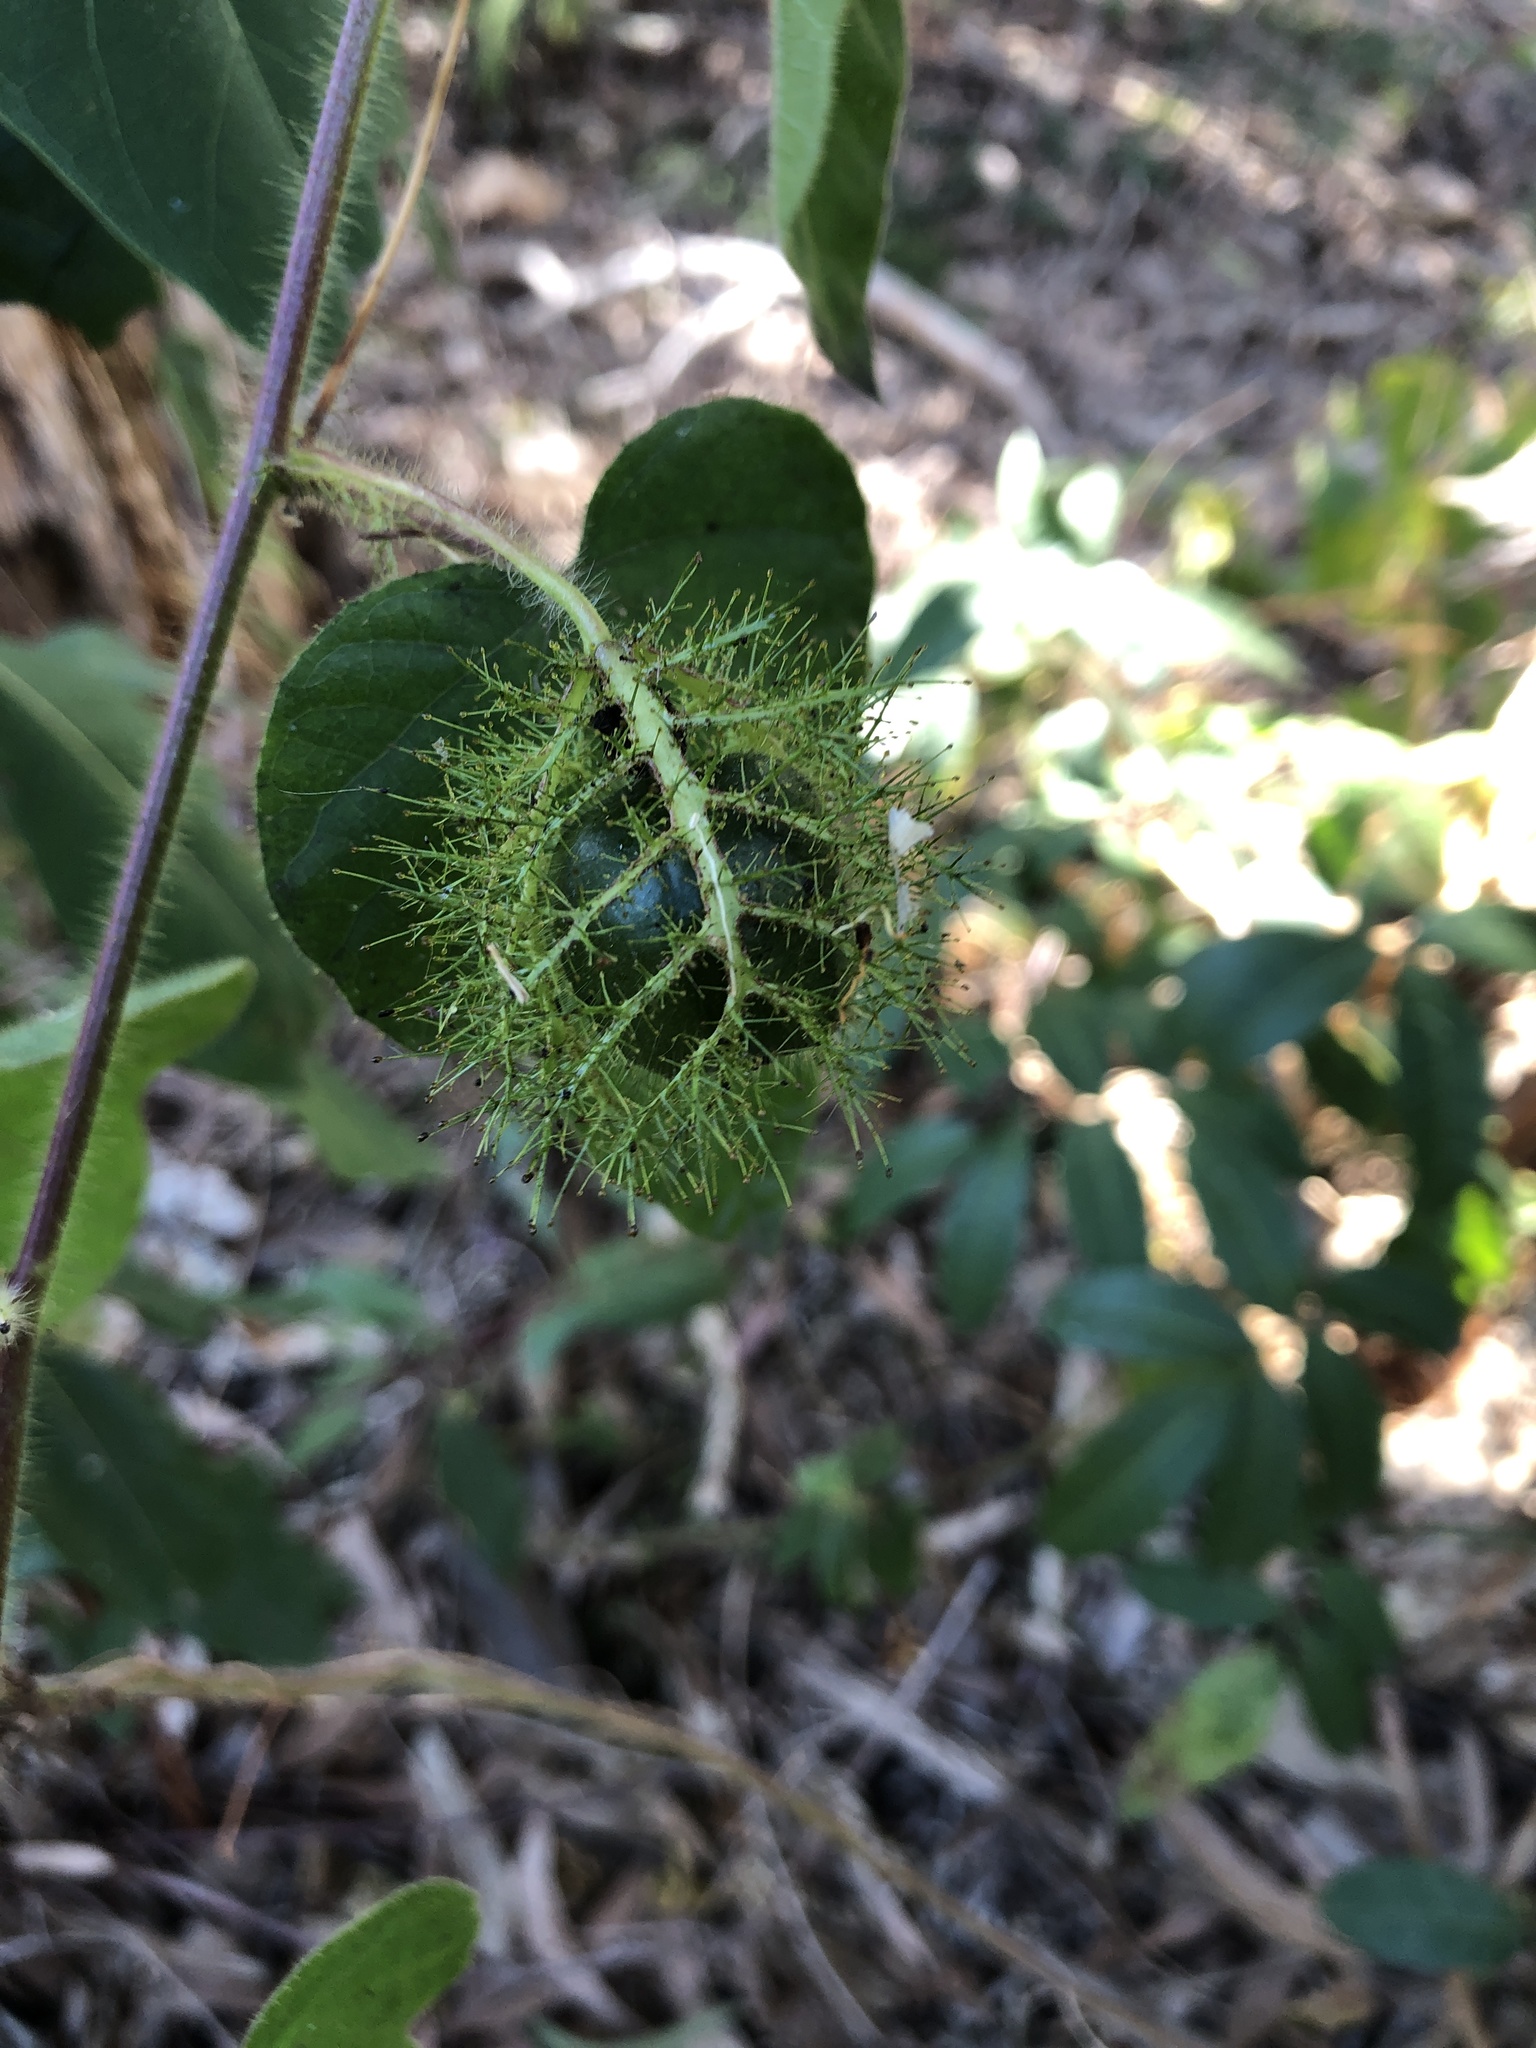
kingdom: Plantae
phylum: Tracheophyta
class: Magnoliopsida
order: Malpighiales
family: Passifloraceae
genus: Passiflora
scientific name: Passiflora foetida
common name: Fetid passionflower
